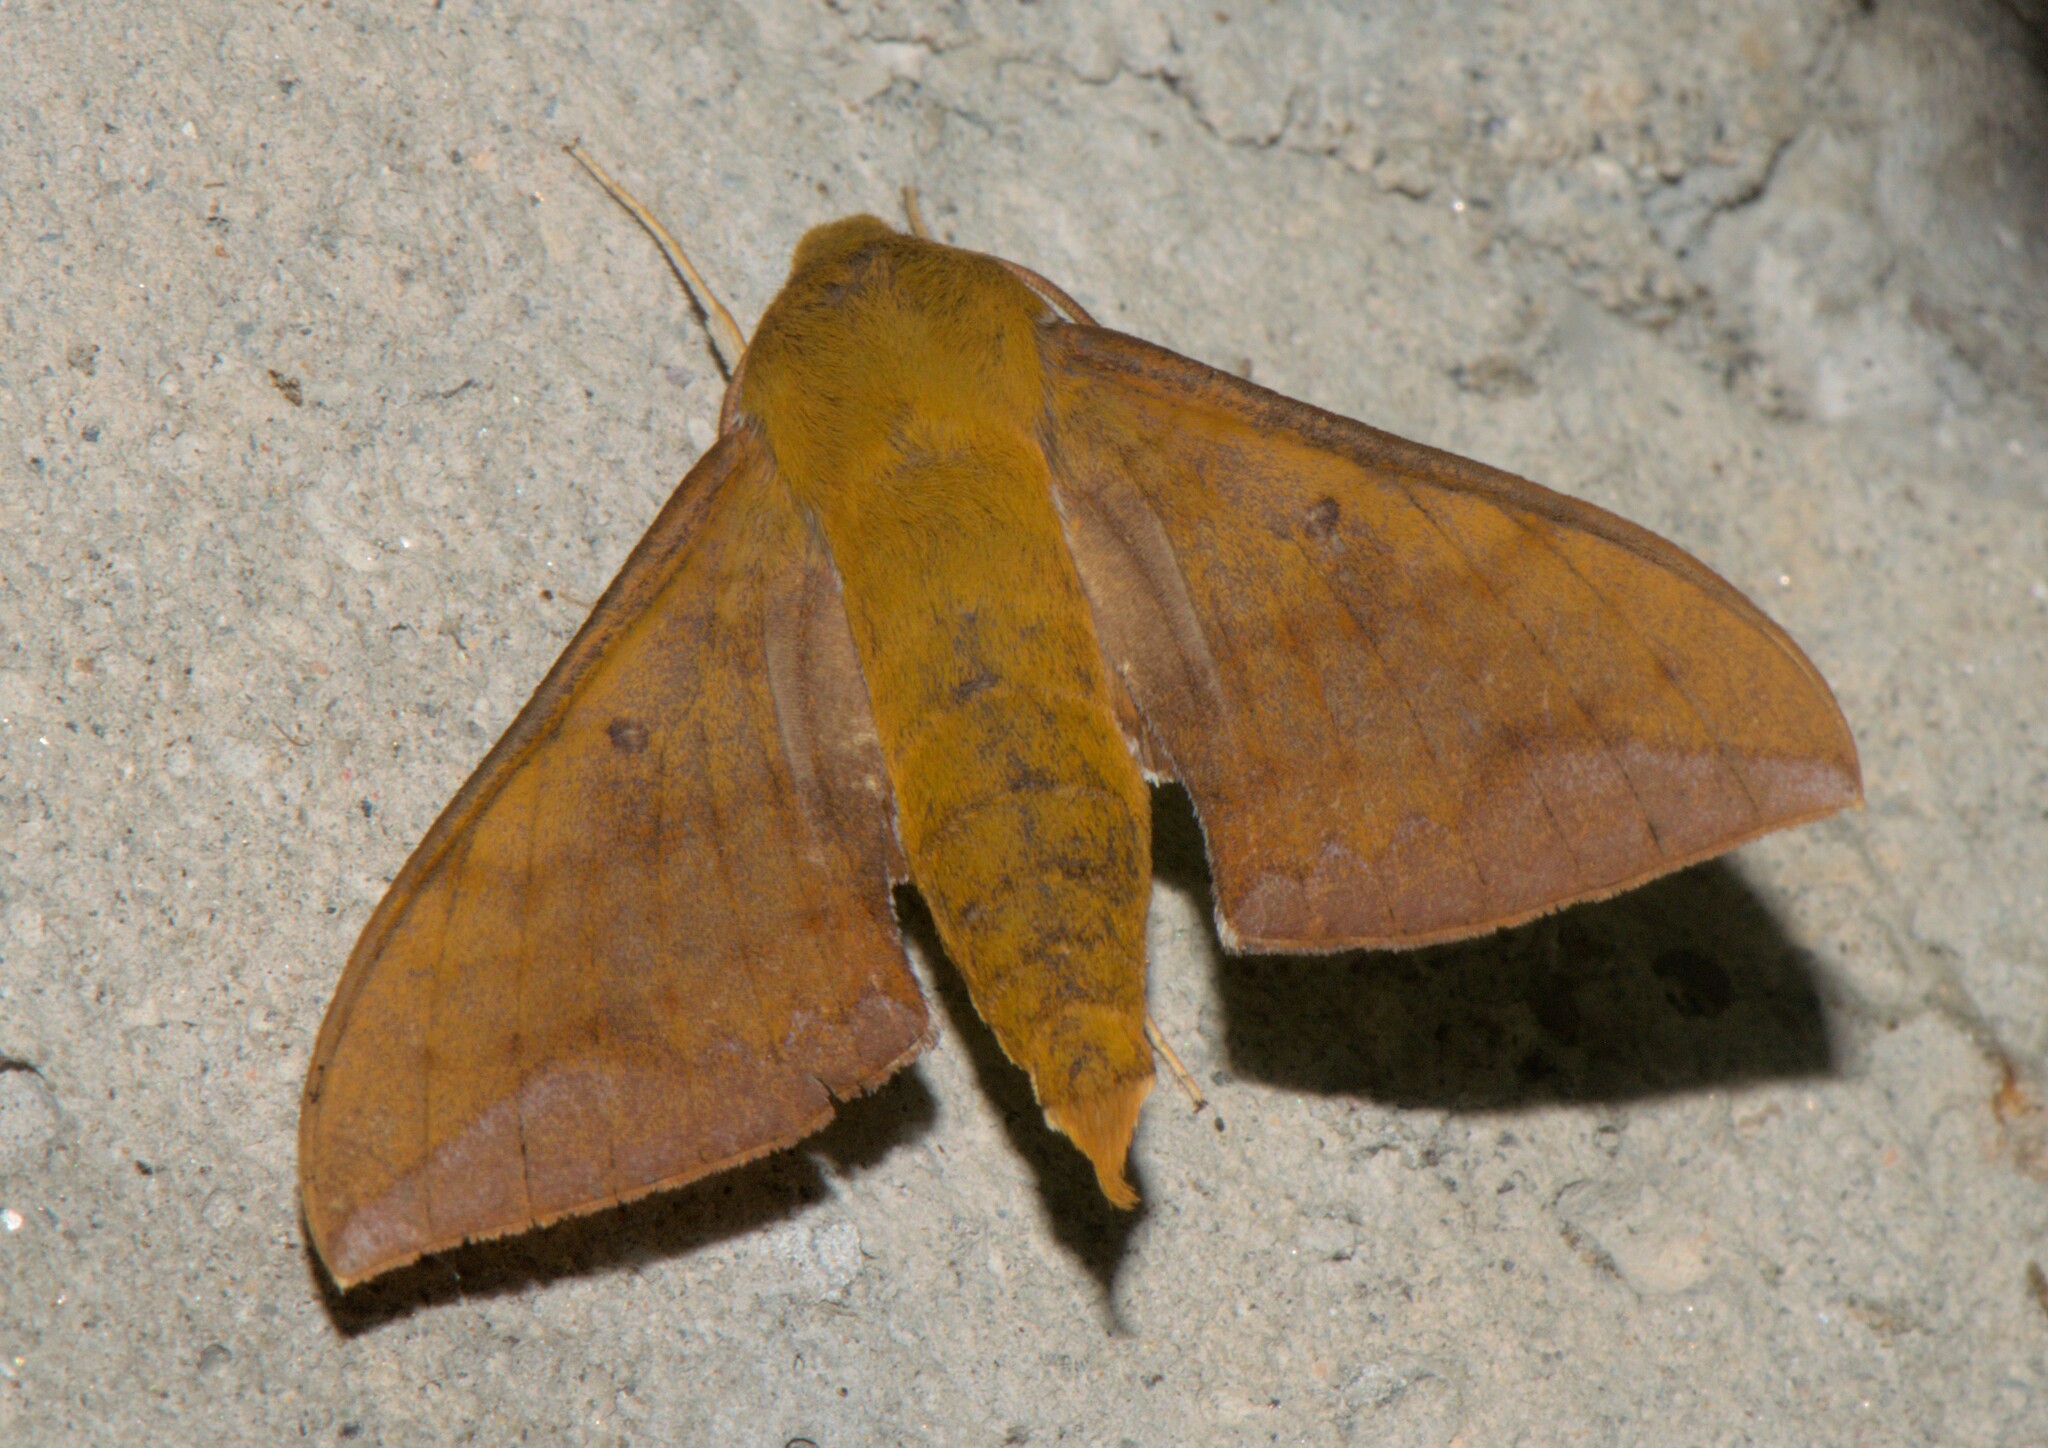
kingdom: Animalia
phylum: Arthropoda
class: Insecta
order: Lepidoptera
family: Sphingidae
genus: Rhagastis
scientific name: Rhagastis olivacea
